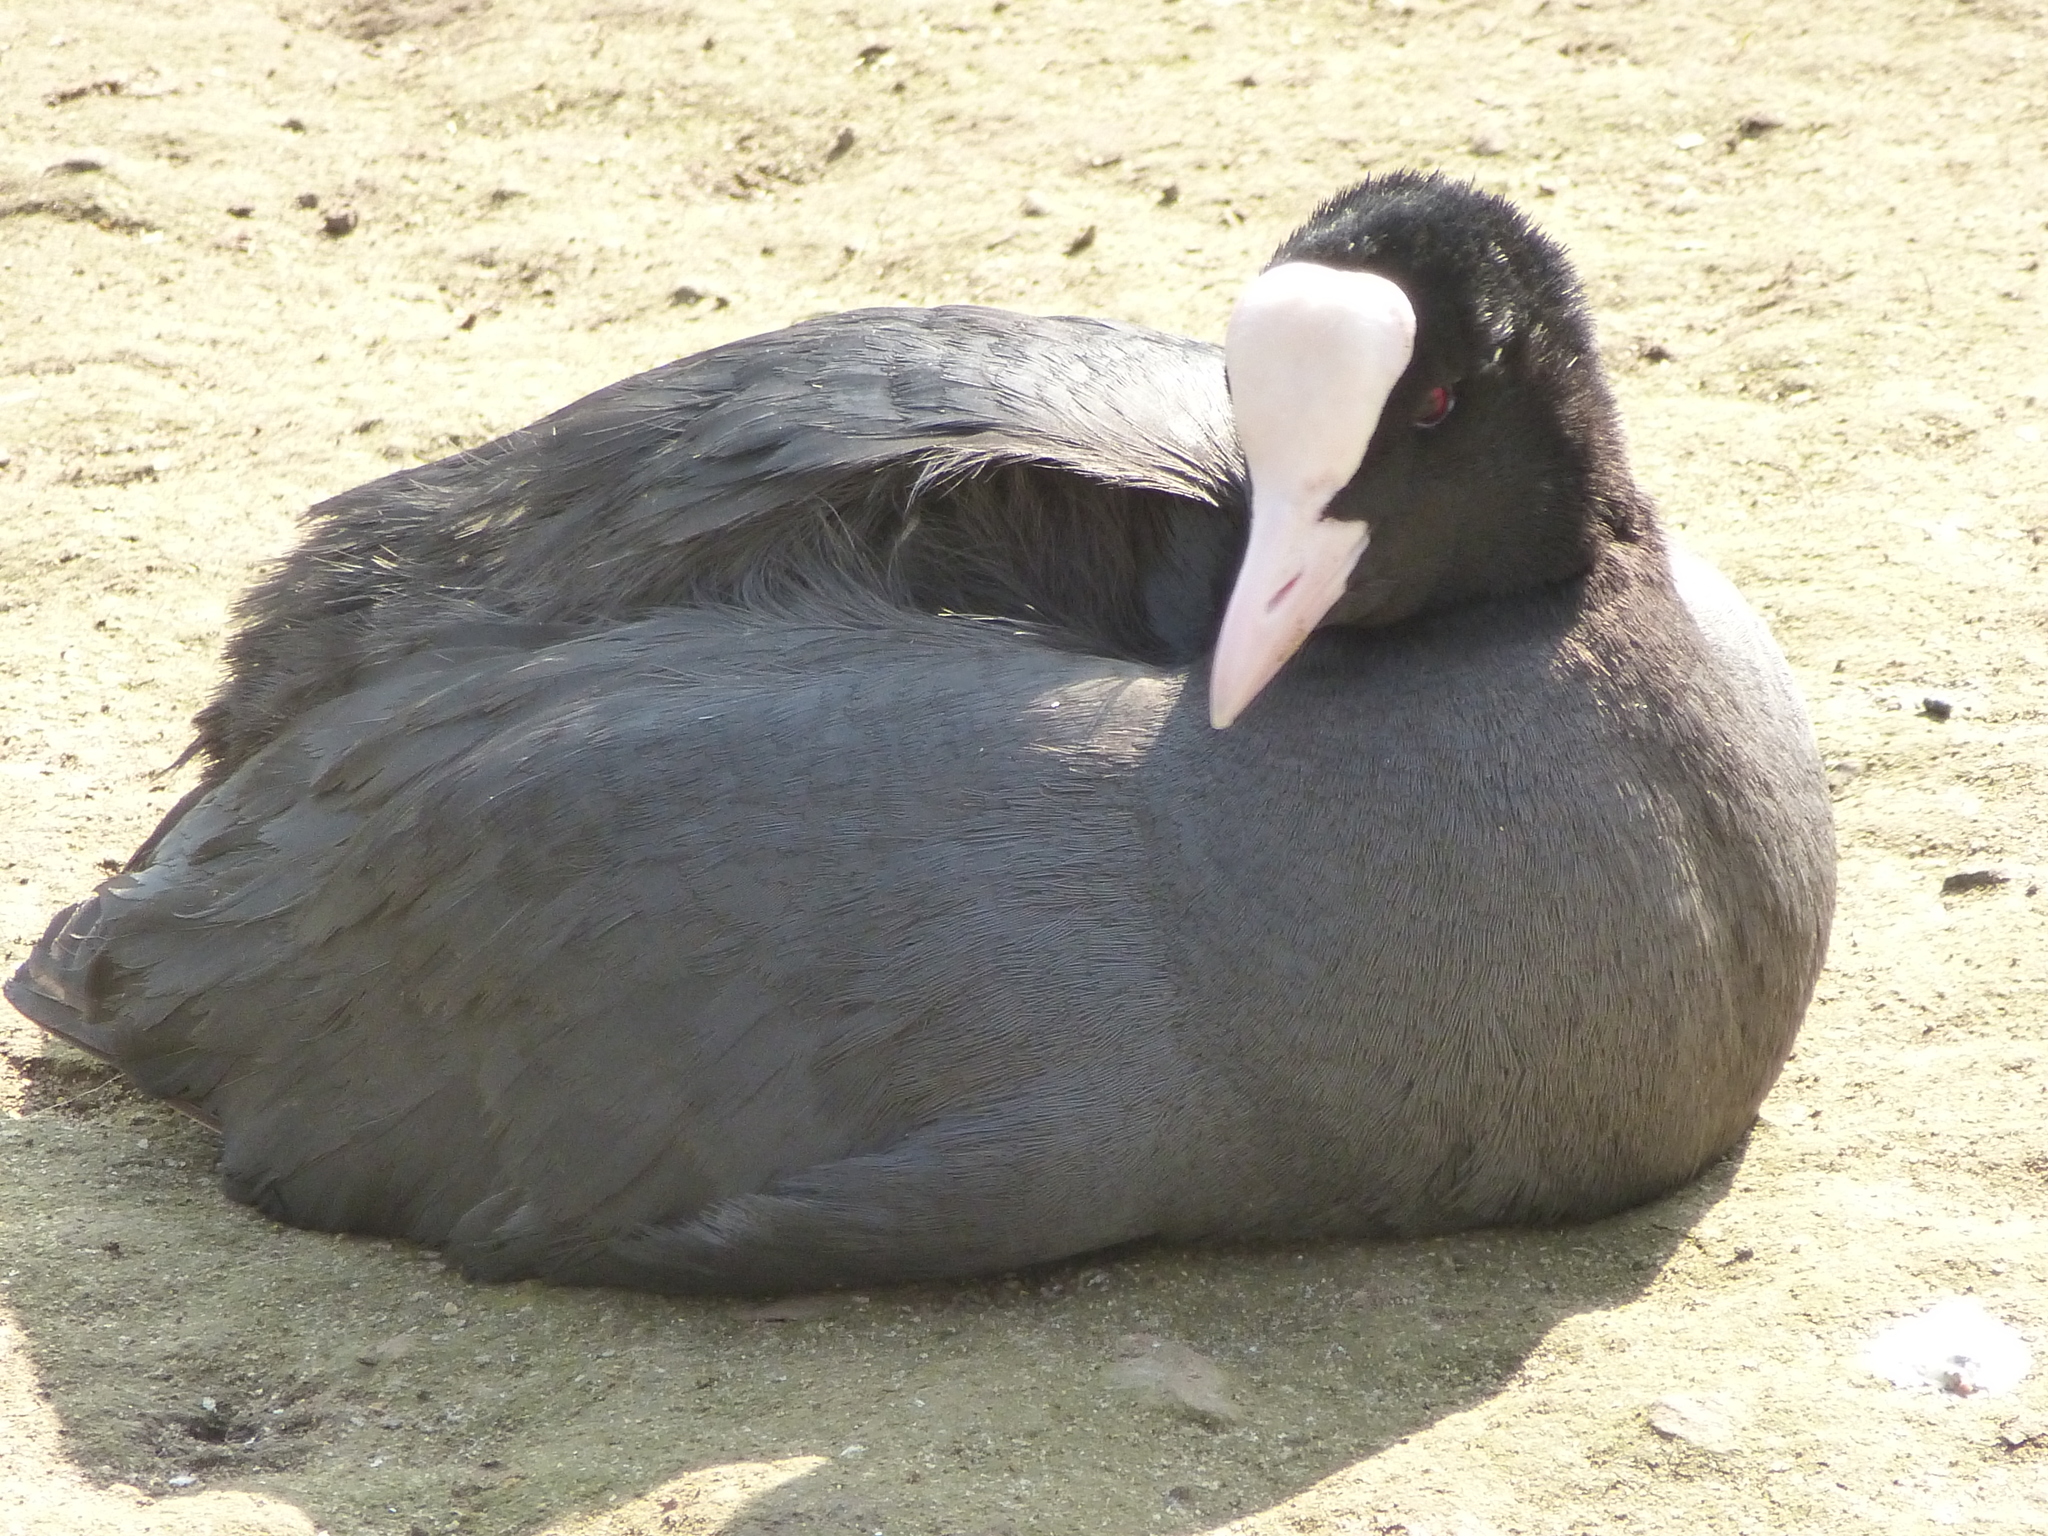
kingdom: Animalia
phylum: Chordata
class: Aves
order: Gruiformes
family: Rallidae
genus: Fulica
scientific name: Fulica atra
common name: Eurasian coot
